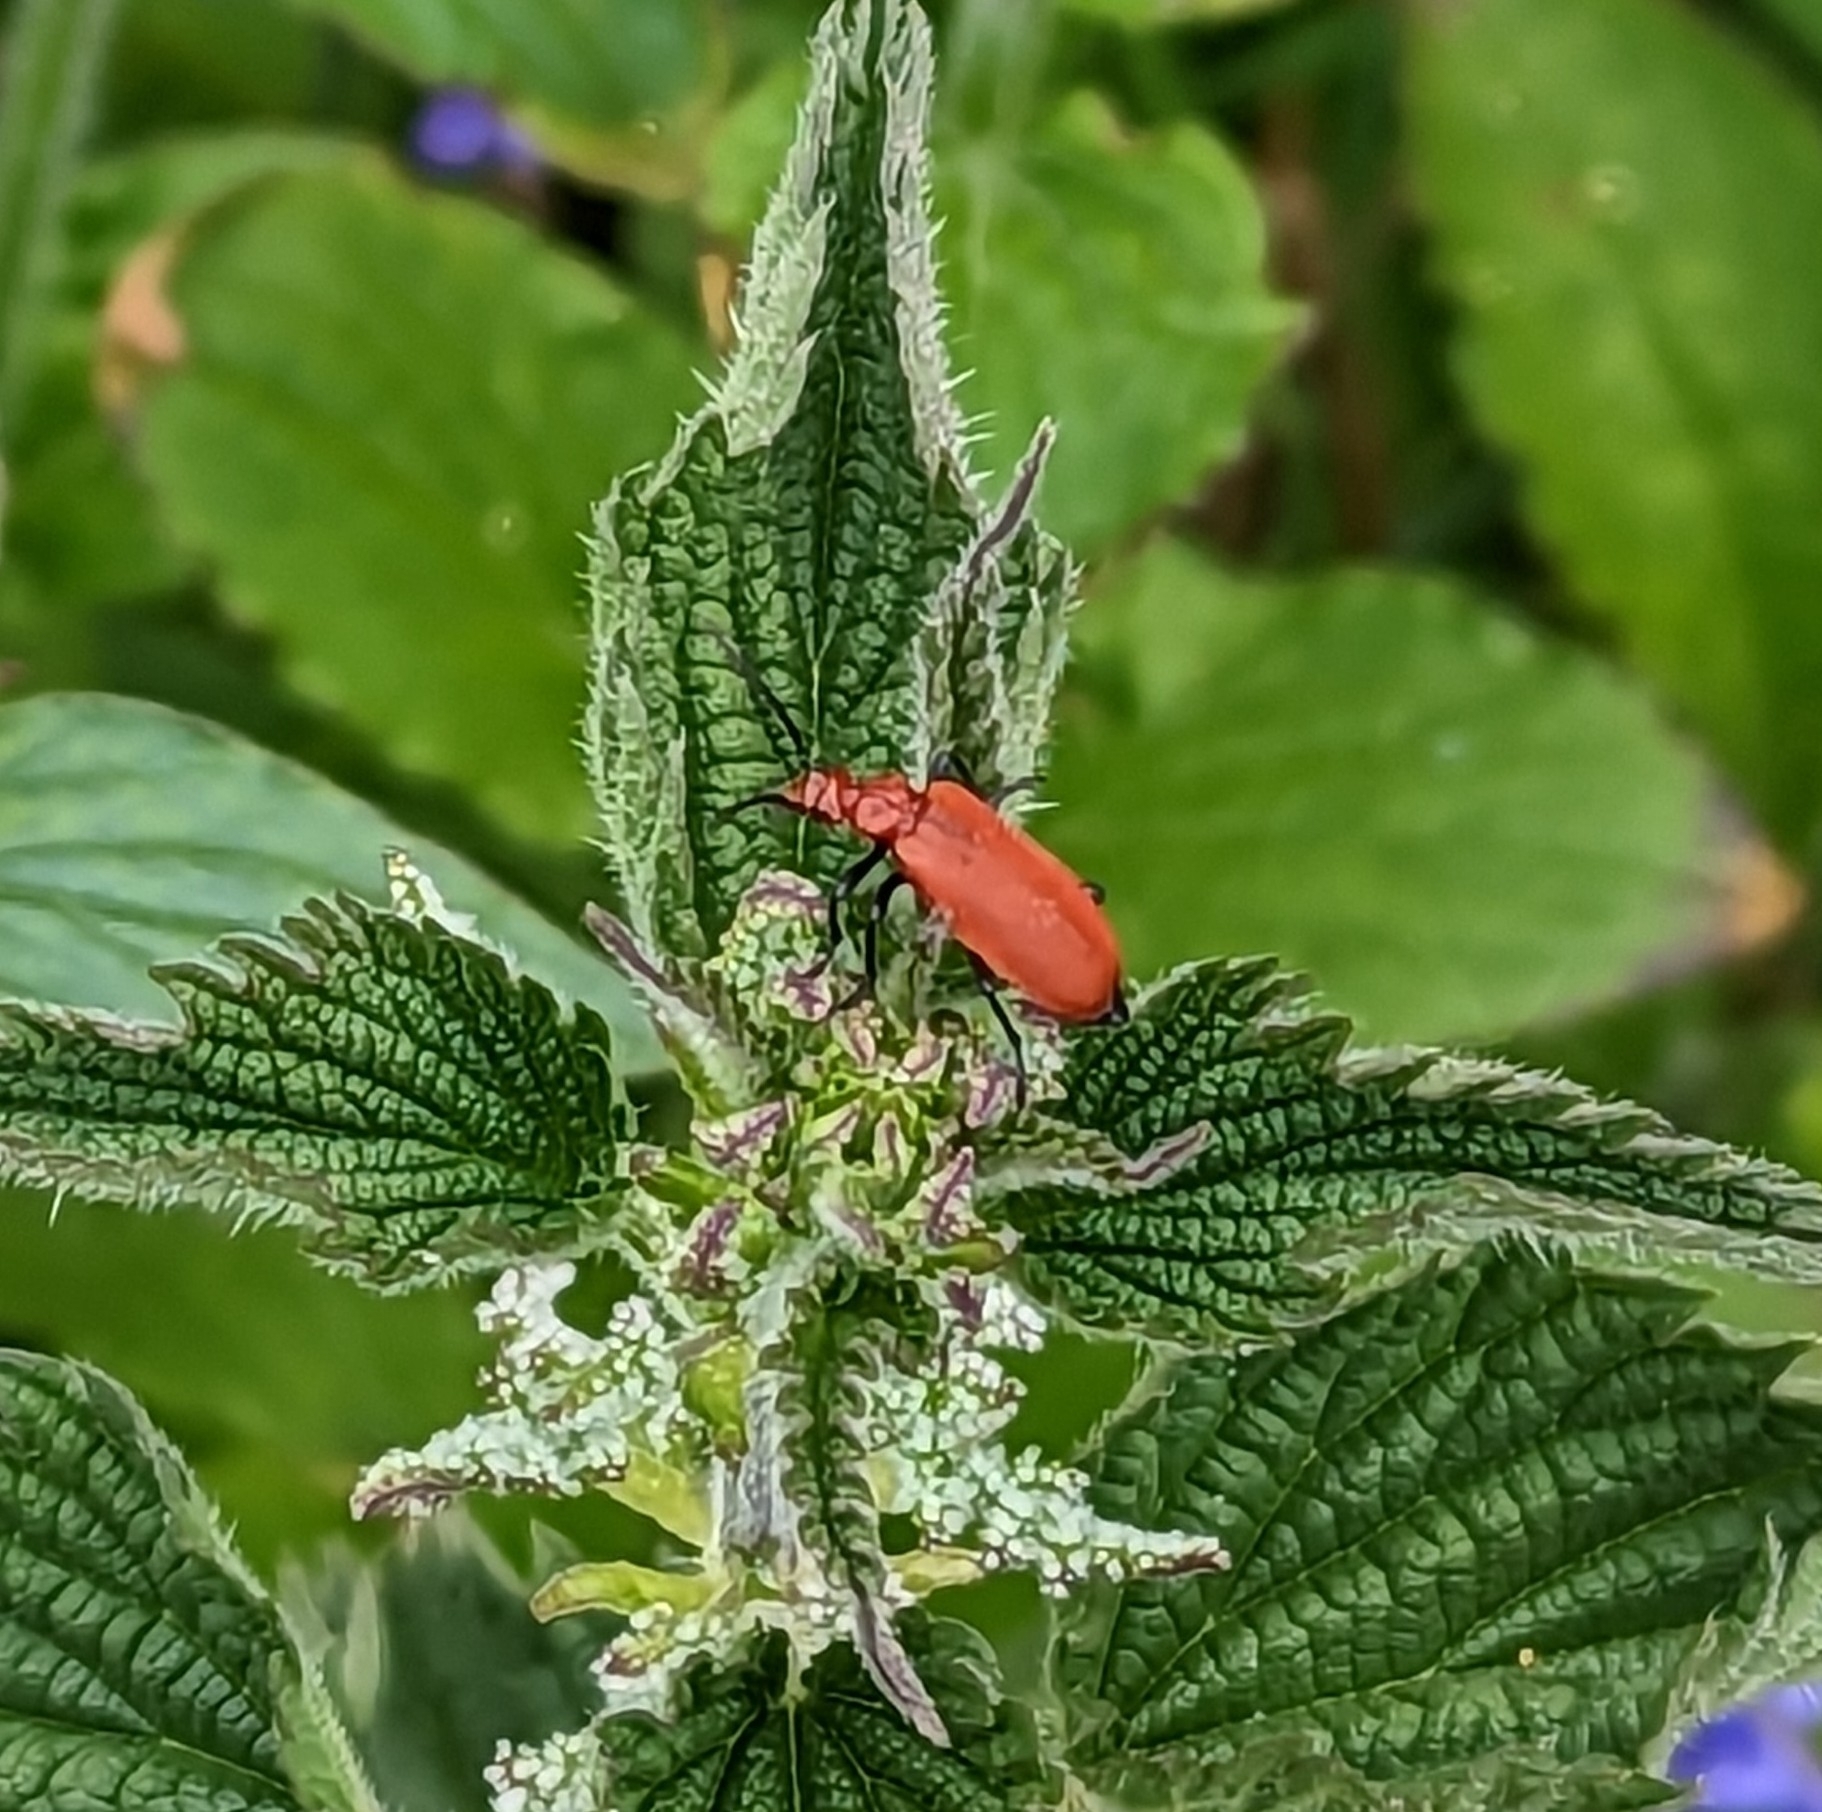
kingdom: Animalia
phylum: Arthropoda
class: Insecta
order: Coleoptera
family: Pyrochroidae
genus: Pyrochroa
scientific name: Pyrochroa serraticornis
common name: Red-headed cardinal beetle
